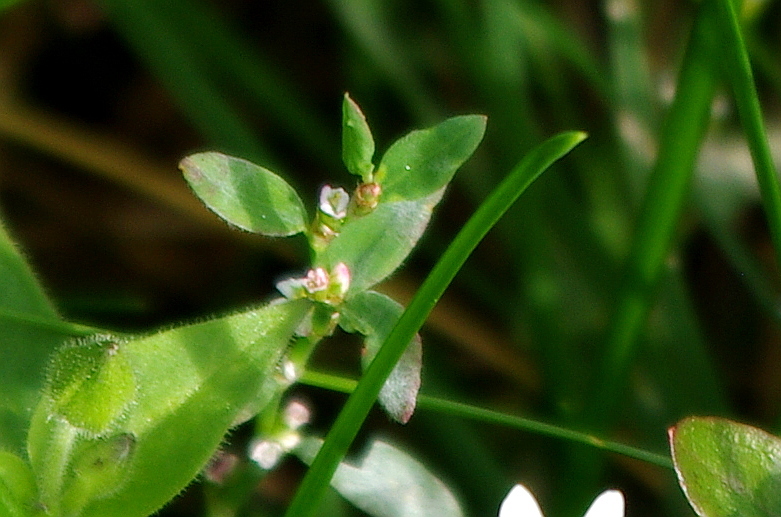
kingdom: Plantae
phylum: Tracheophyta
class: Magnoliopsida
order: Caryophyllales
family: Polygonaceae
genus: Polygonum
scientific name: Polygonum
